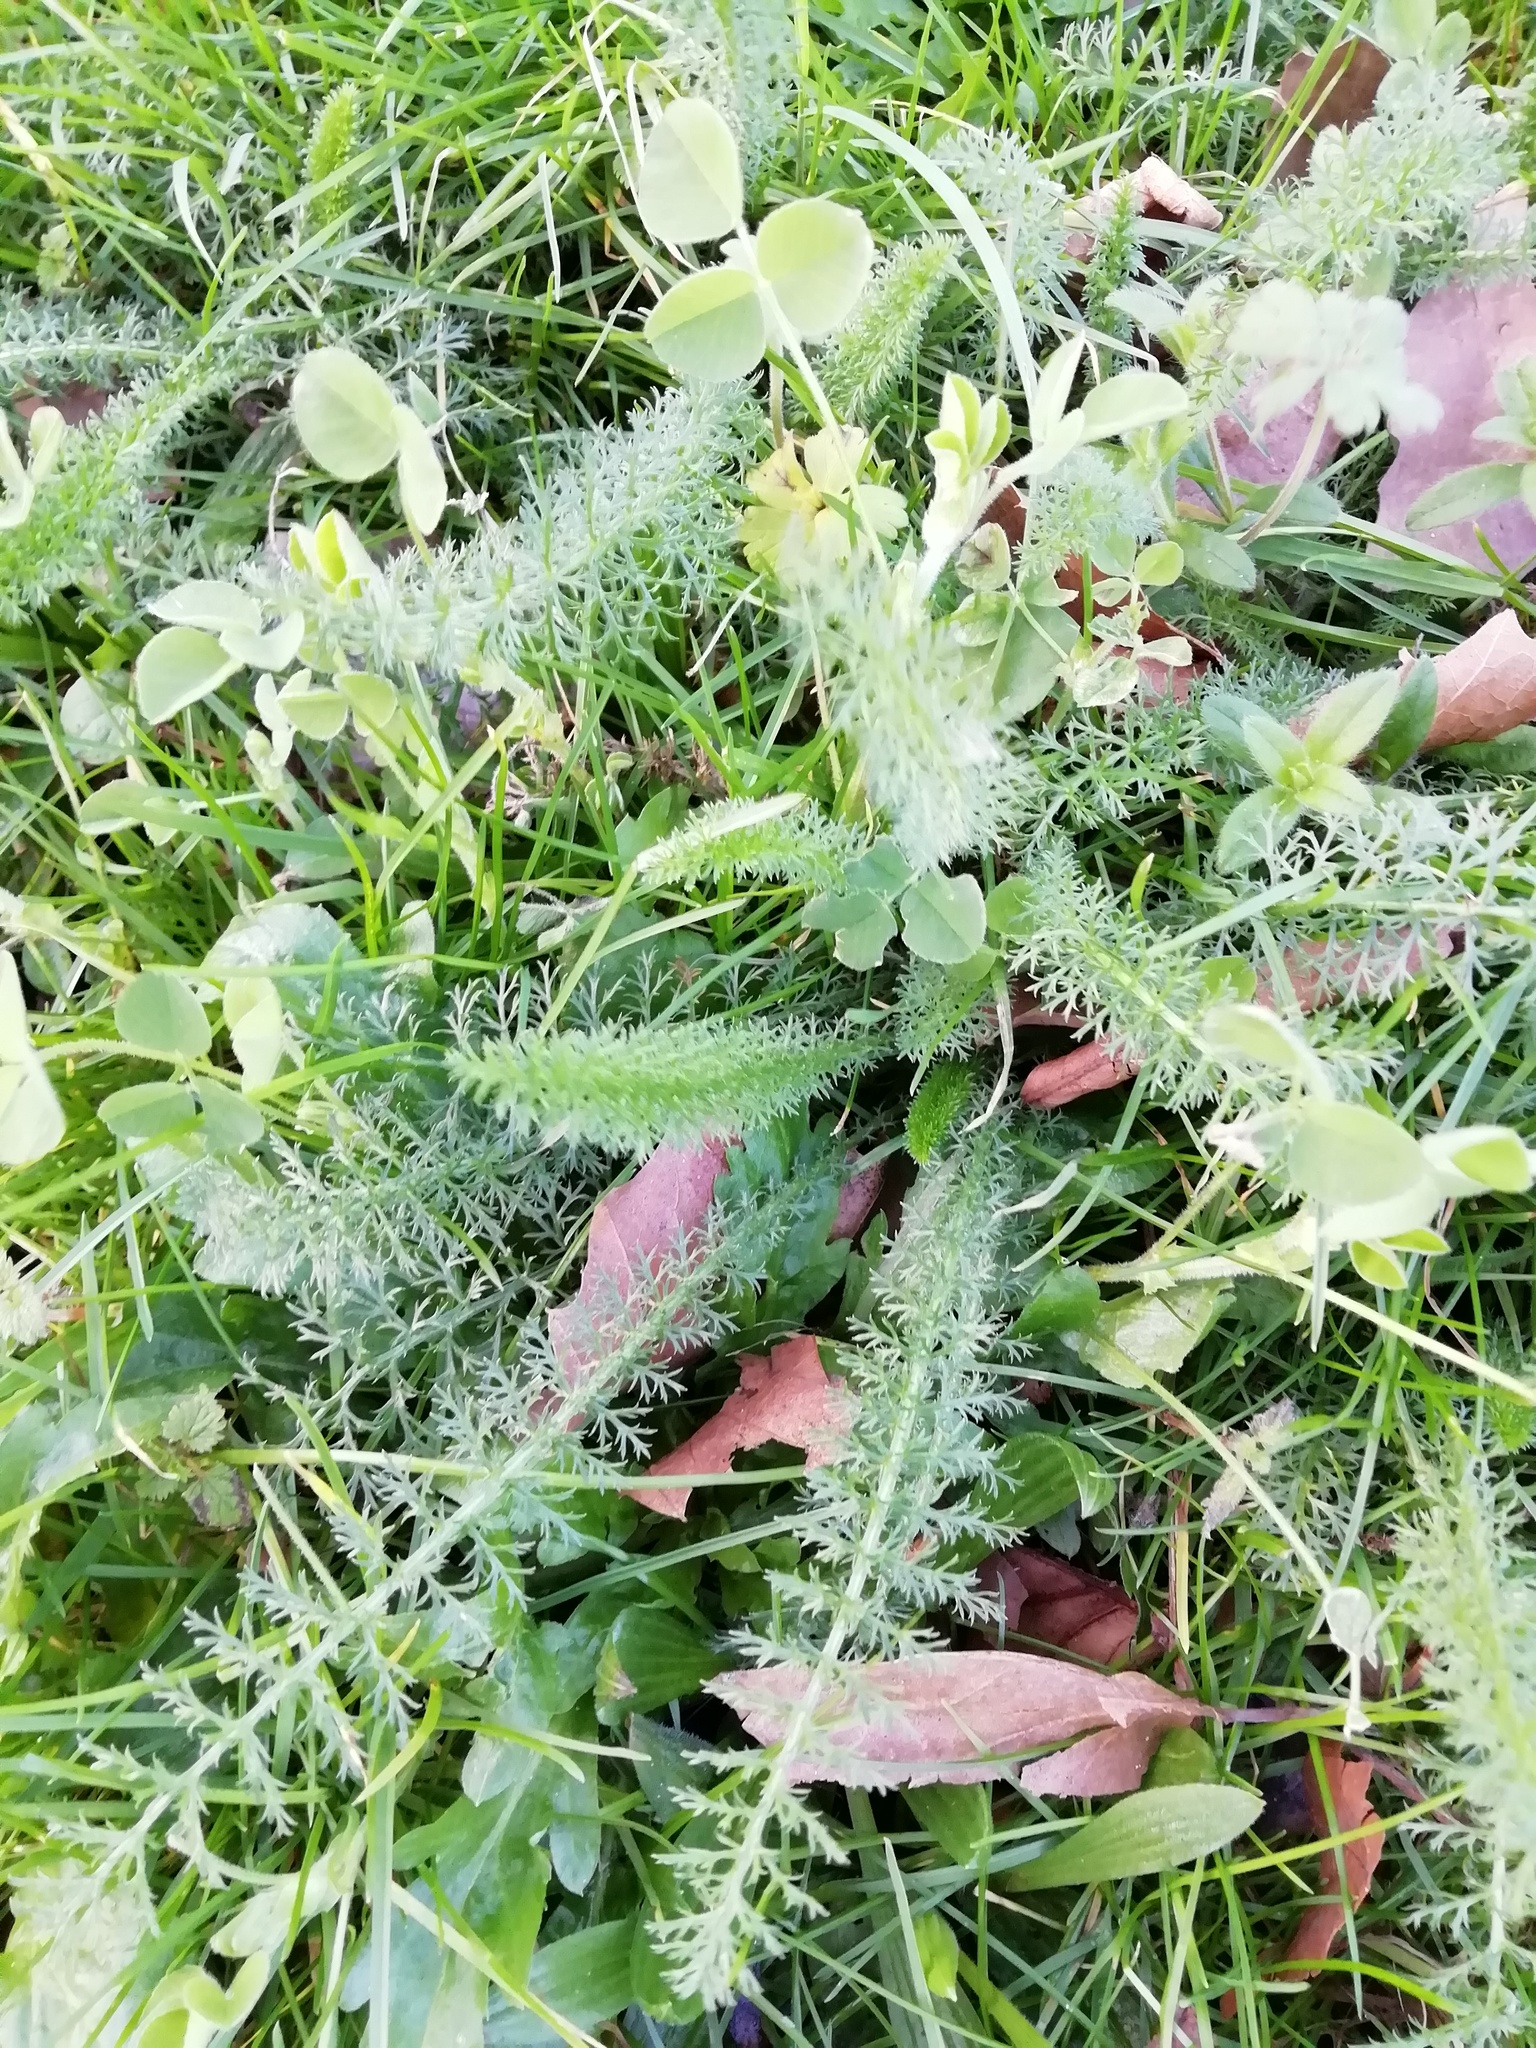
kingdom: Plantae
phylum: Tracheophyta
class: Magnoliopsida
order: Asterales
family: Asteraceae
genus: Achillea
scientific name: Achillea millefolium
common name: Yarrow
